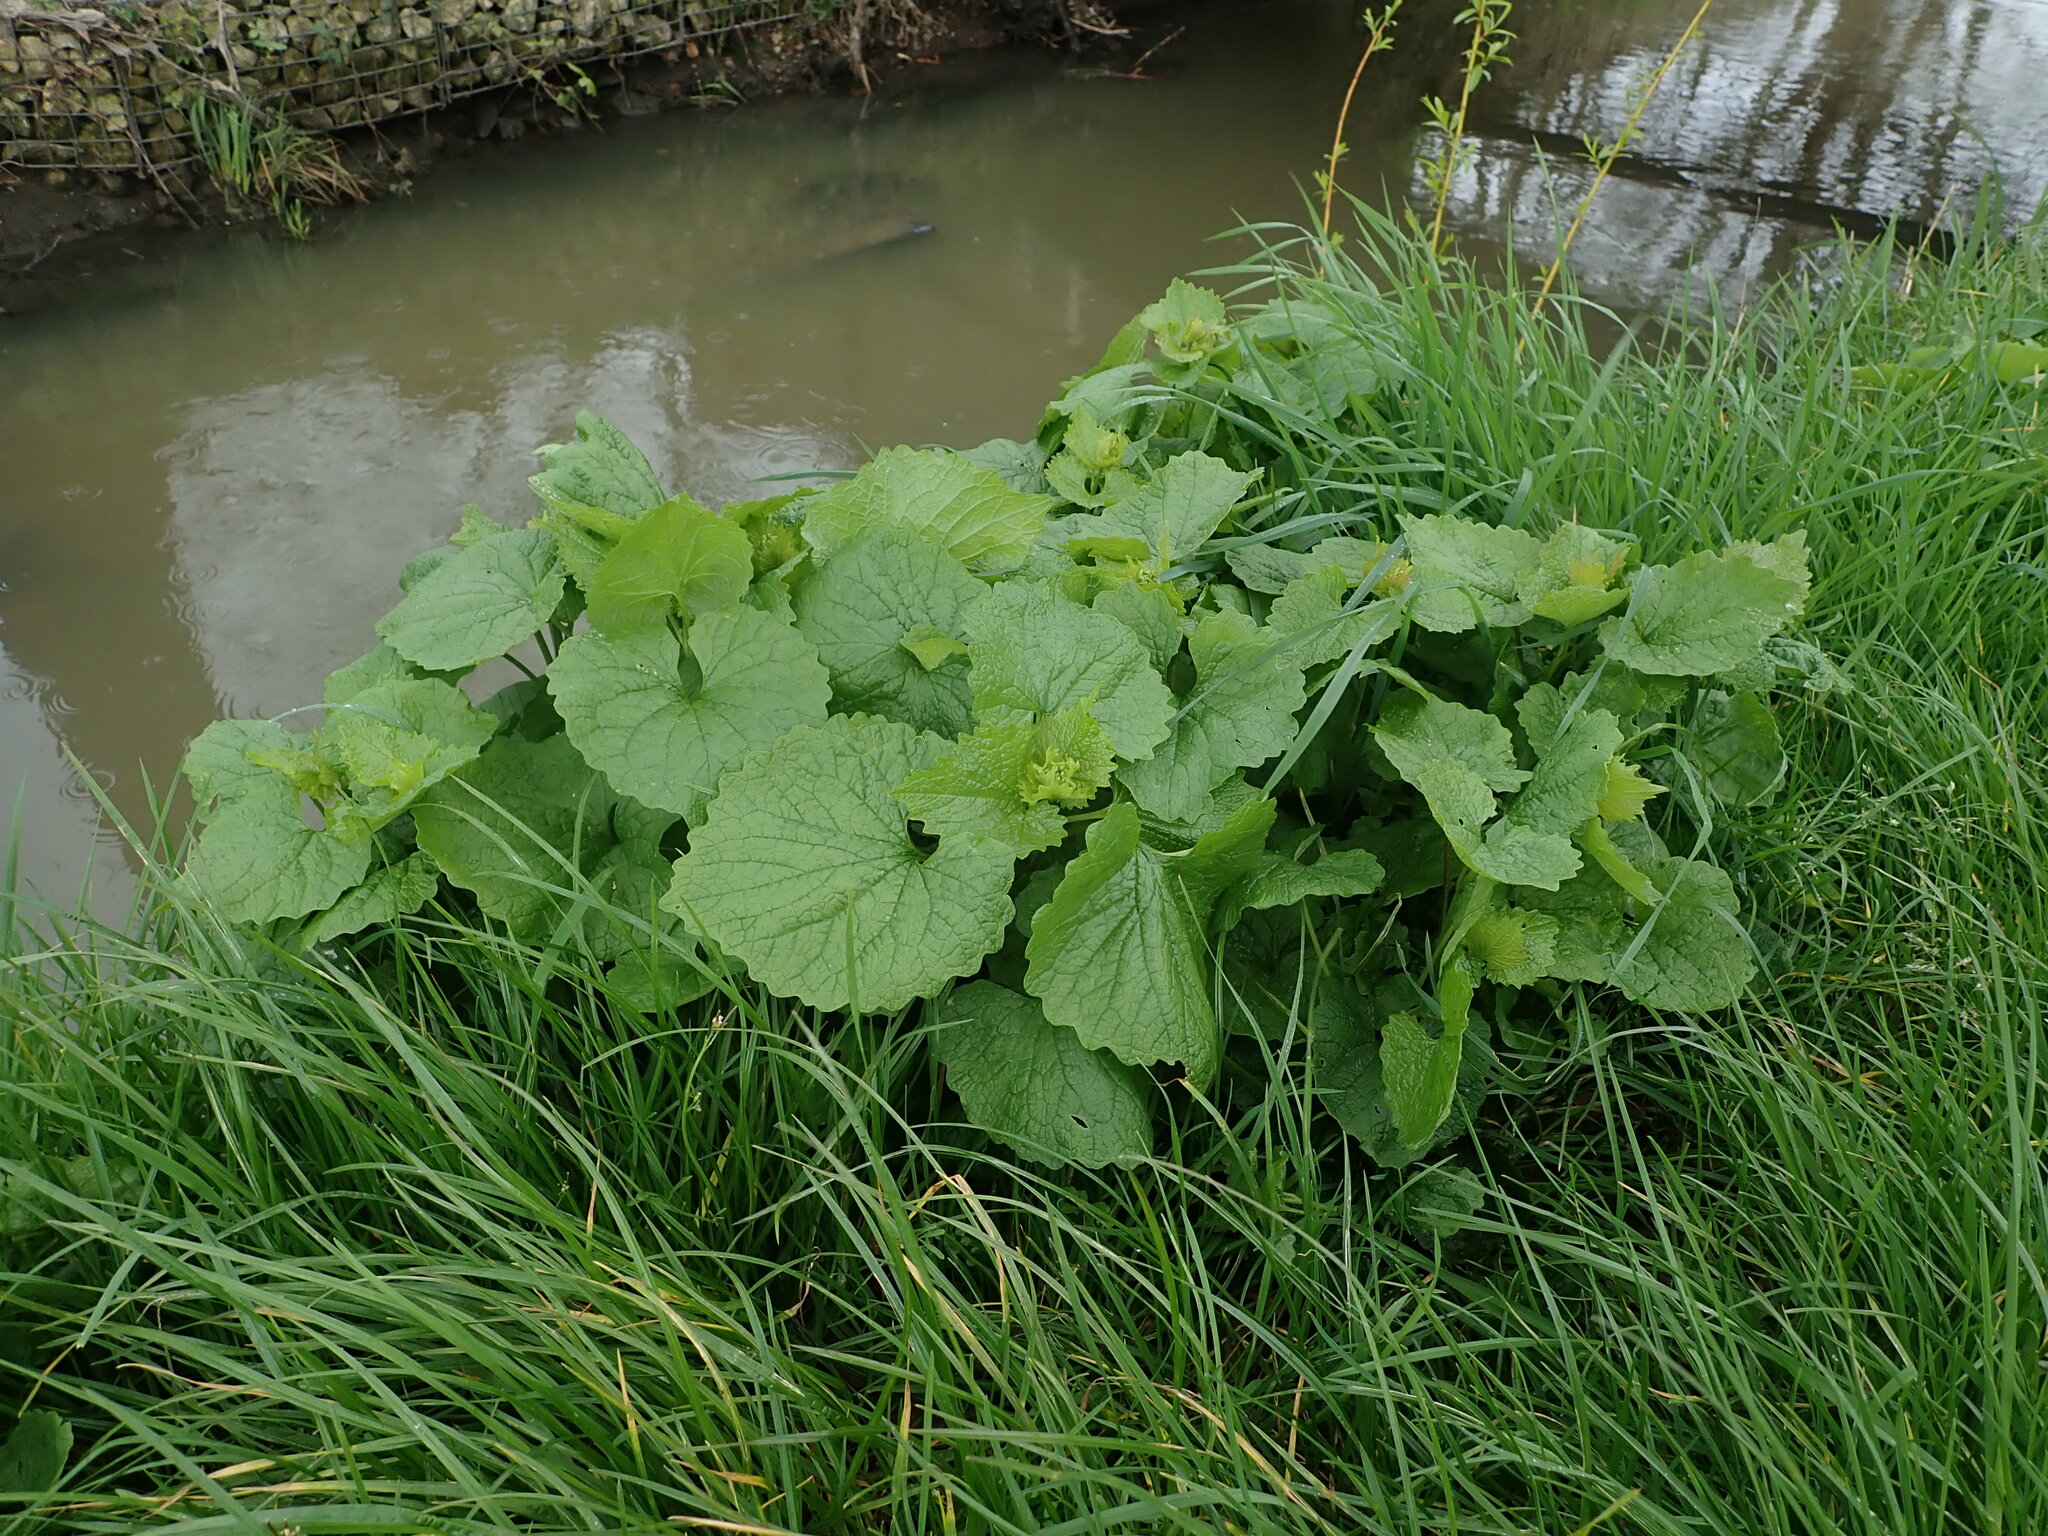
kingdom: Plantae
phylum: Tracheophyta
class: Magnoliopsida
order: Brassicales
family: Brassicaceae
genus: Alliaria
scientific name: Alliaria petiolata
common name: Garlic mustard
